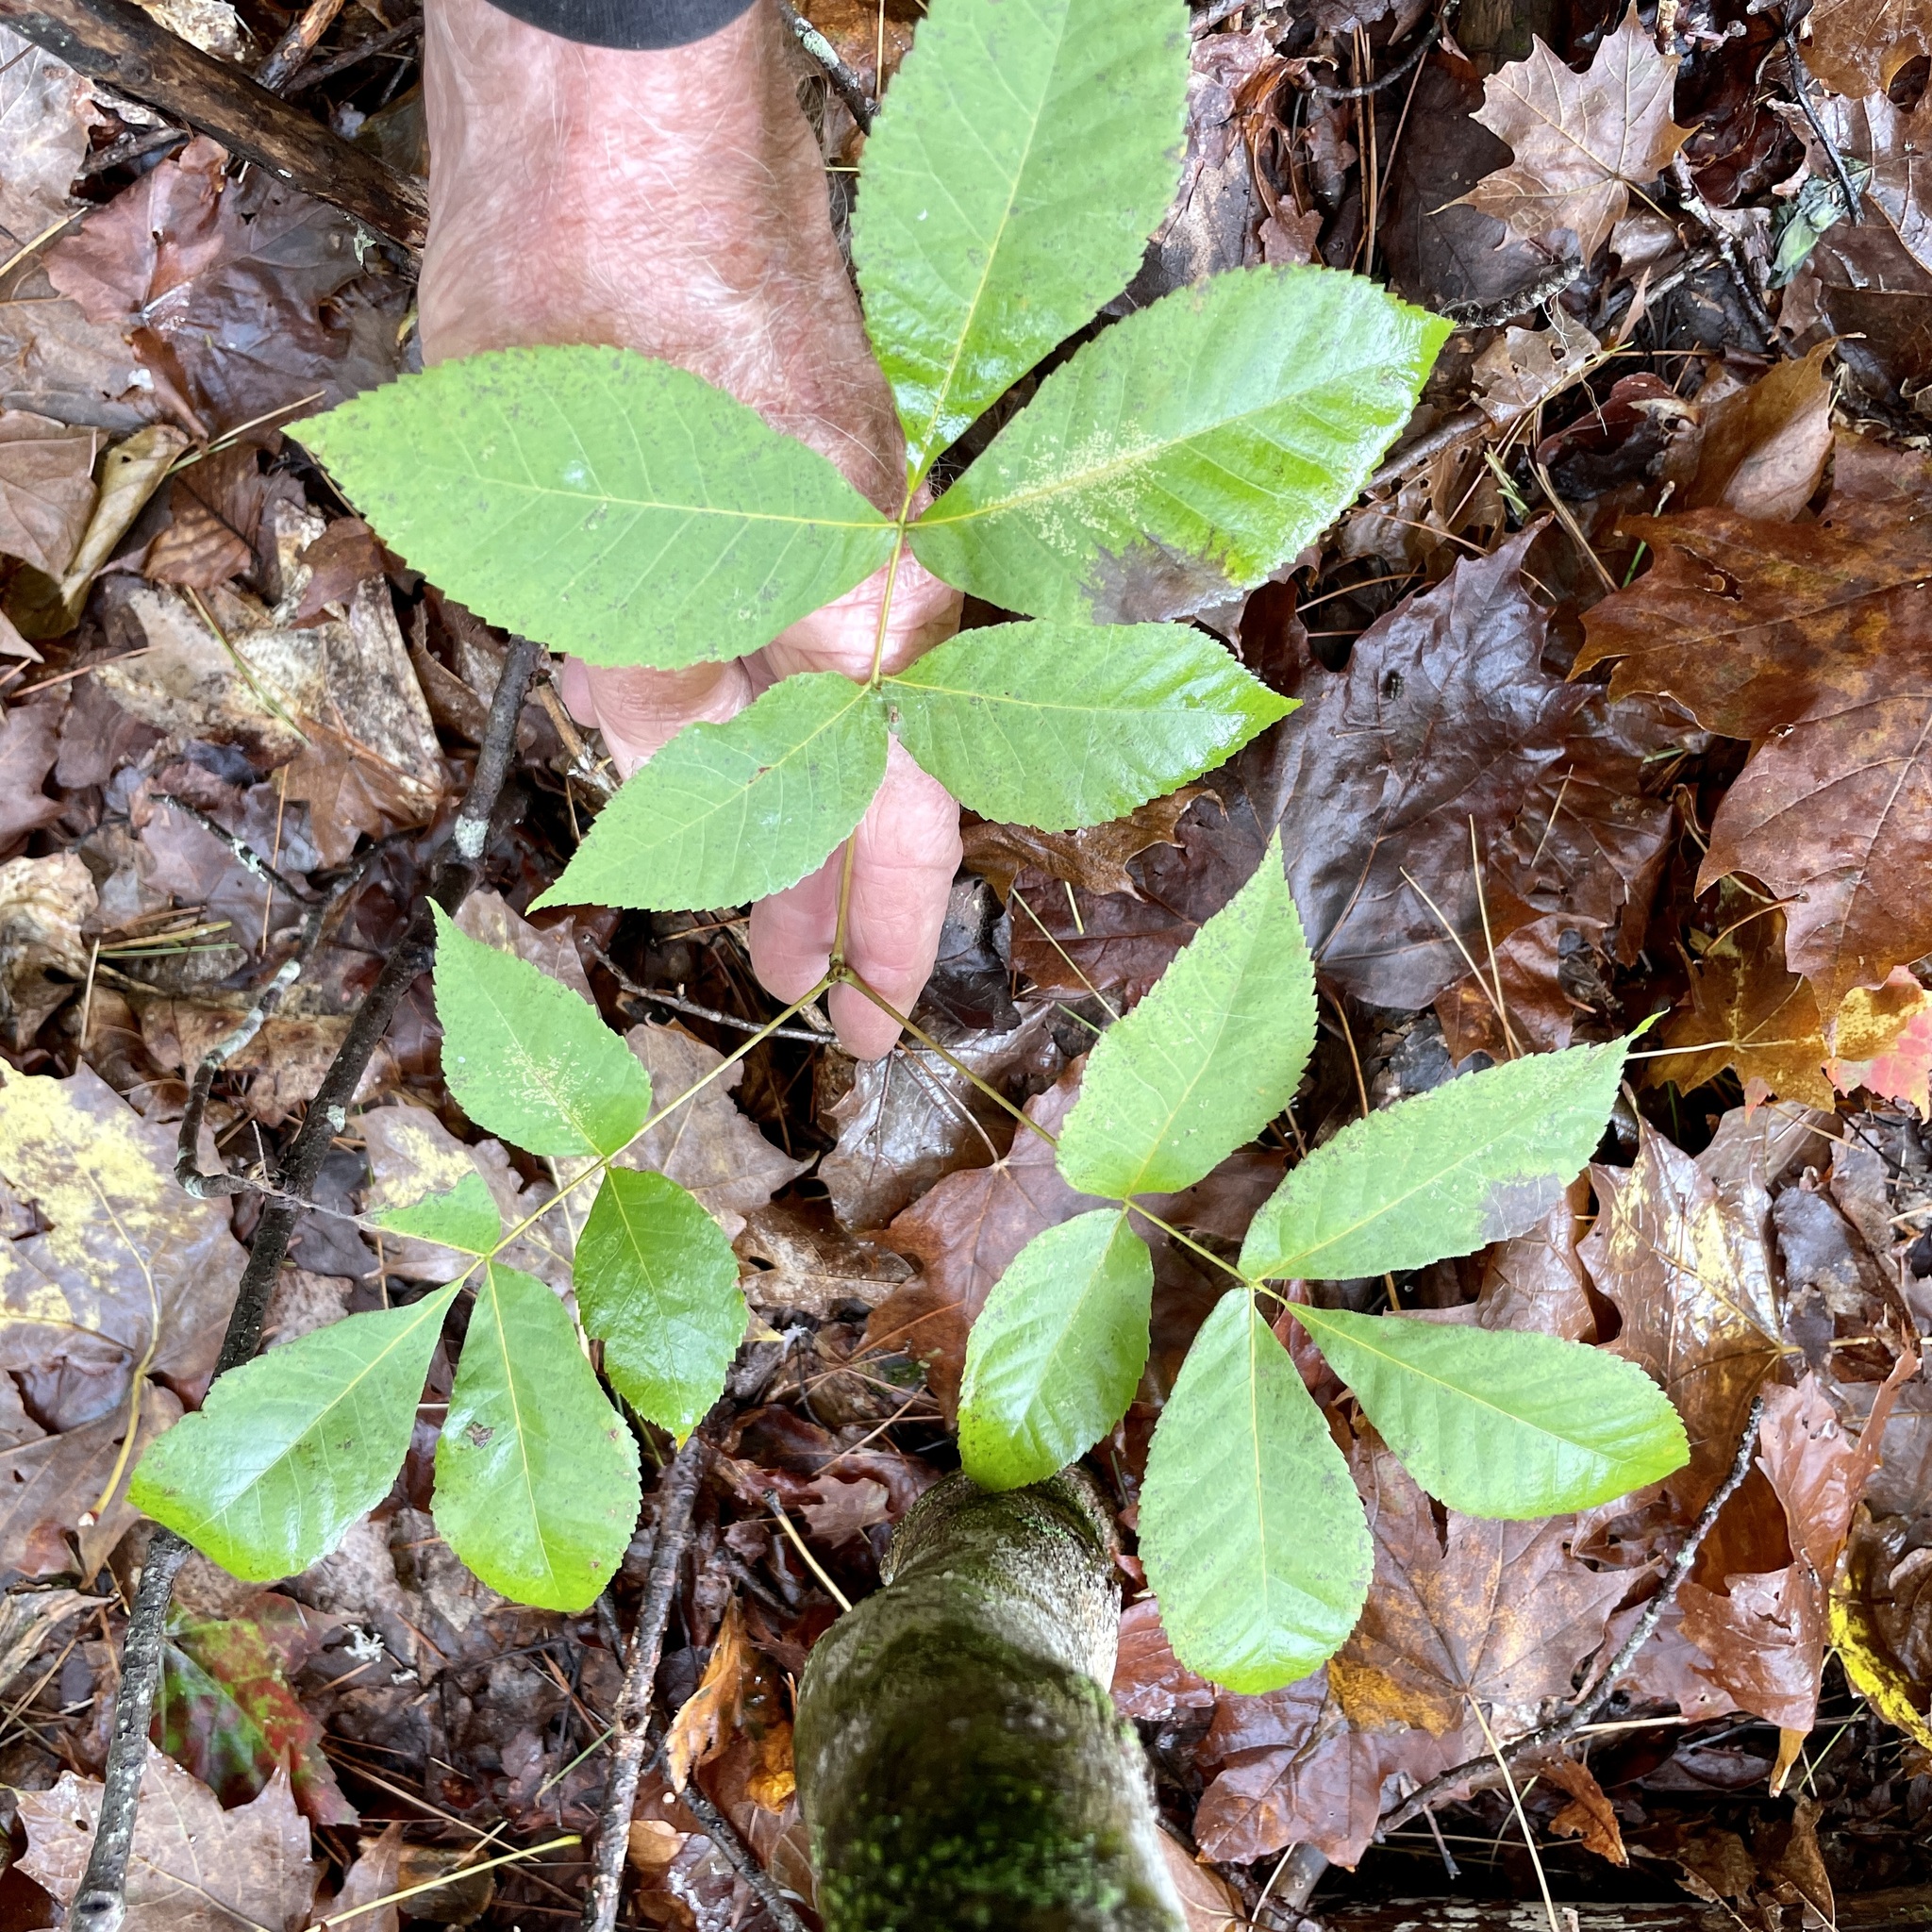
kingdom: Plantae
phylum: Tracheophyta
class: Magnoliopsida
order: Fagales
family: Juglandaceae
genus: Carya
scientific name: Carya ovata
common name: Shagbark hickory
